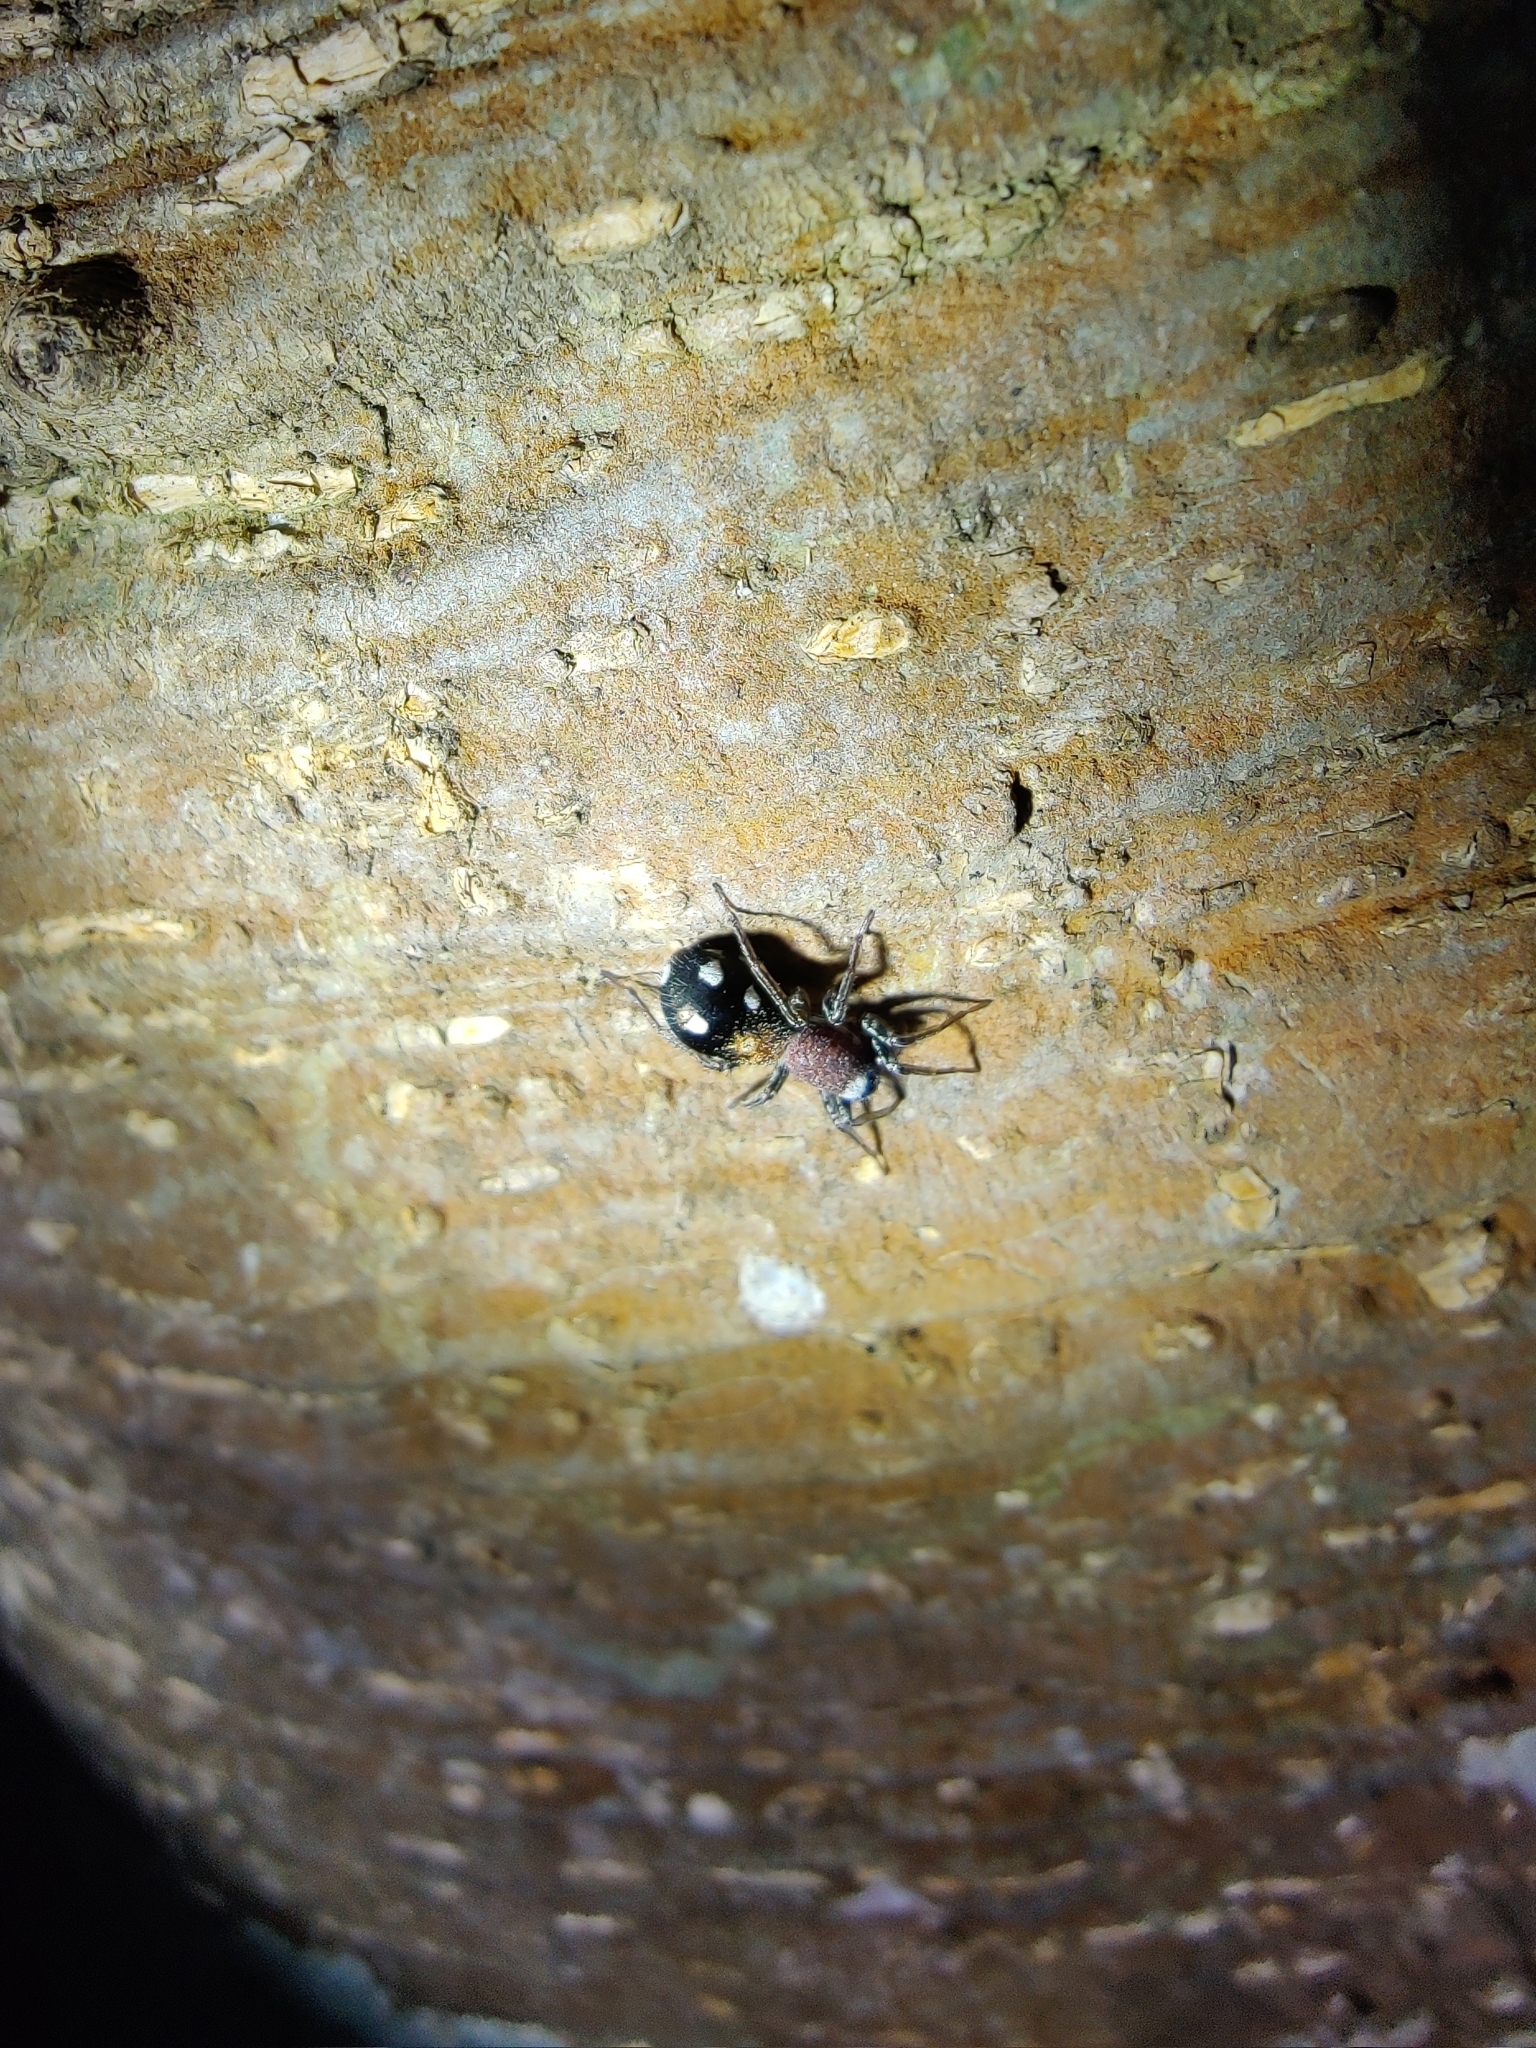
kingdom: Animalia
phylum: Arthropoda
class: Arachnida
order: Araneae
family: Corinnidae
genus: Coenoptychus
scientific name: Coenoptychus pulcher
